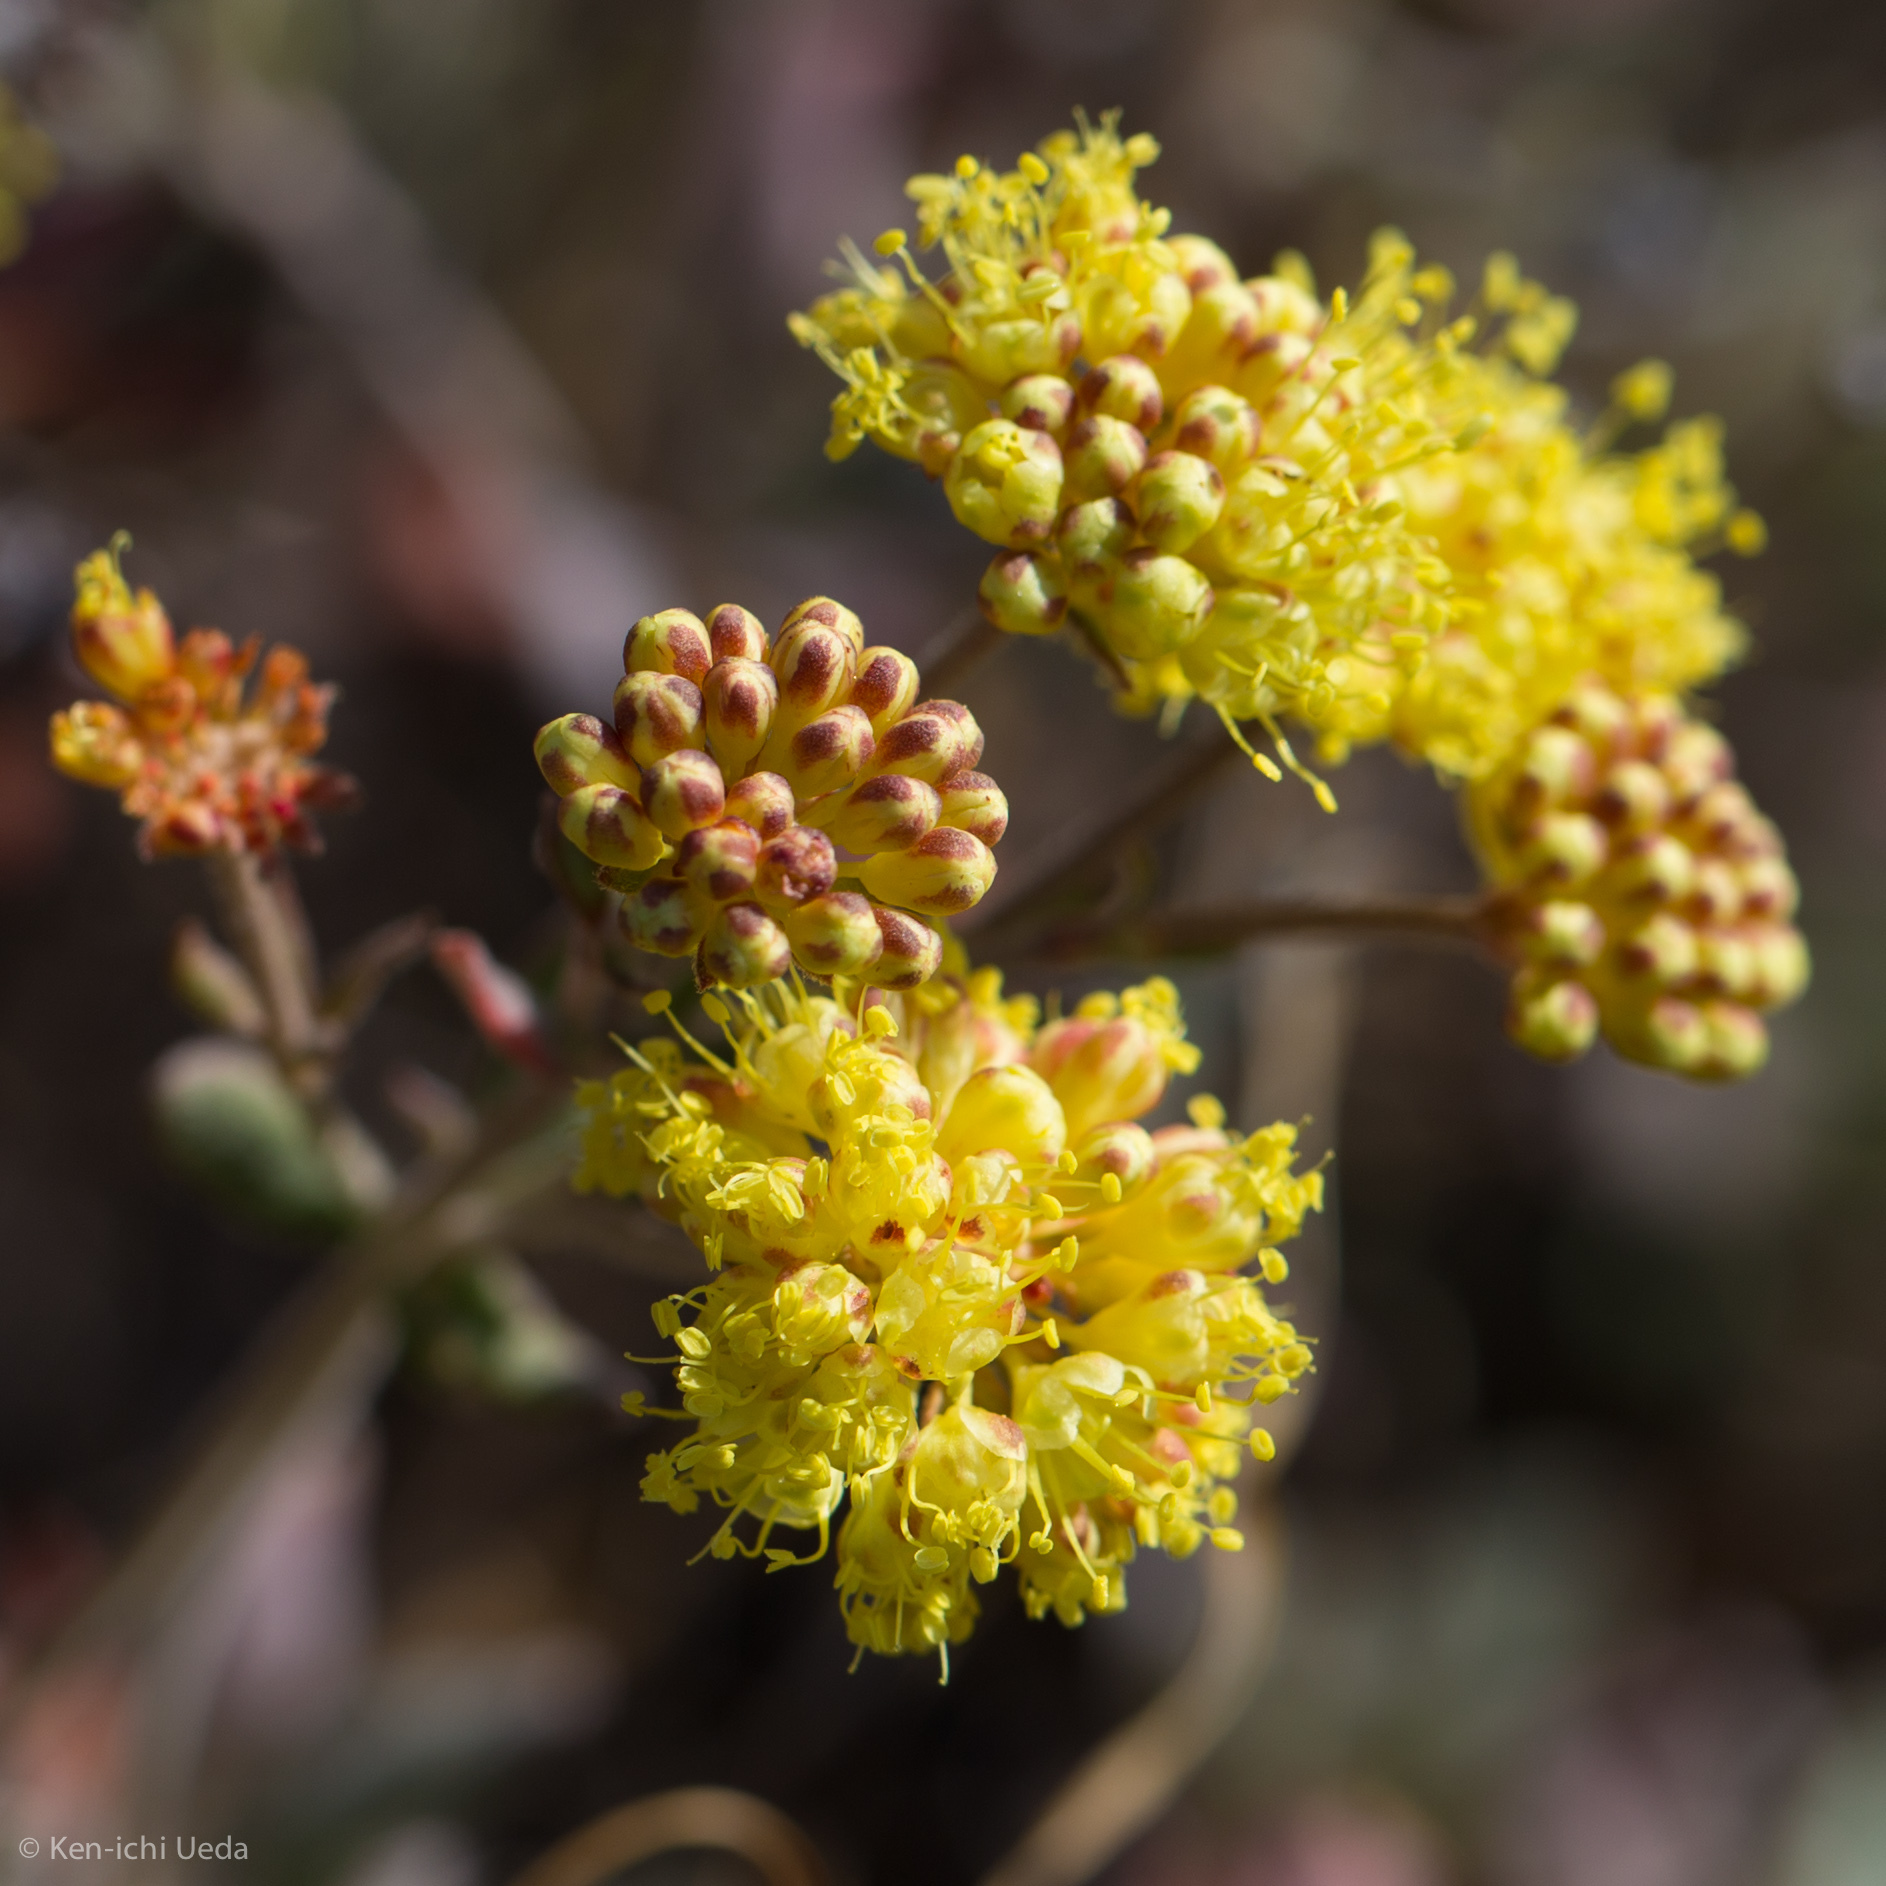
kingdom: Plantae
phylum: Tracheophyta
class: Magnoliopsida
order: Caryophyllales
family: Polygonaceae
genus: Eriogonum
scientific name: Eriogonum umbellatum
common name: Sulfur-buckwheat
